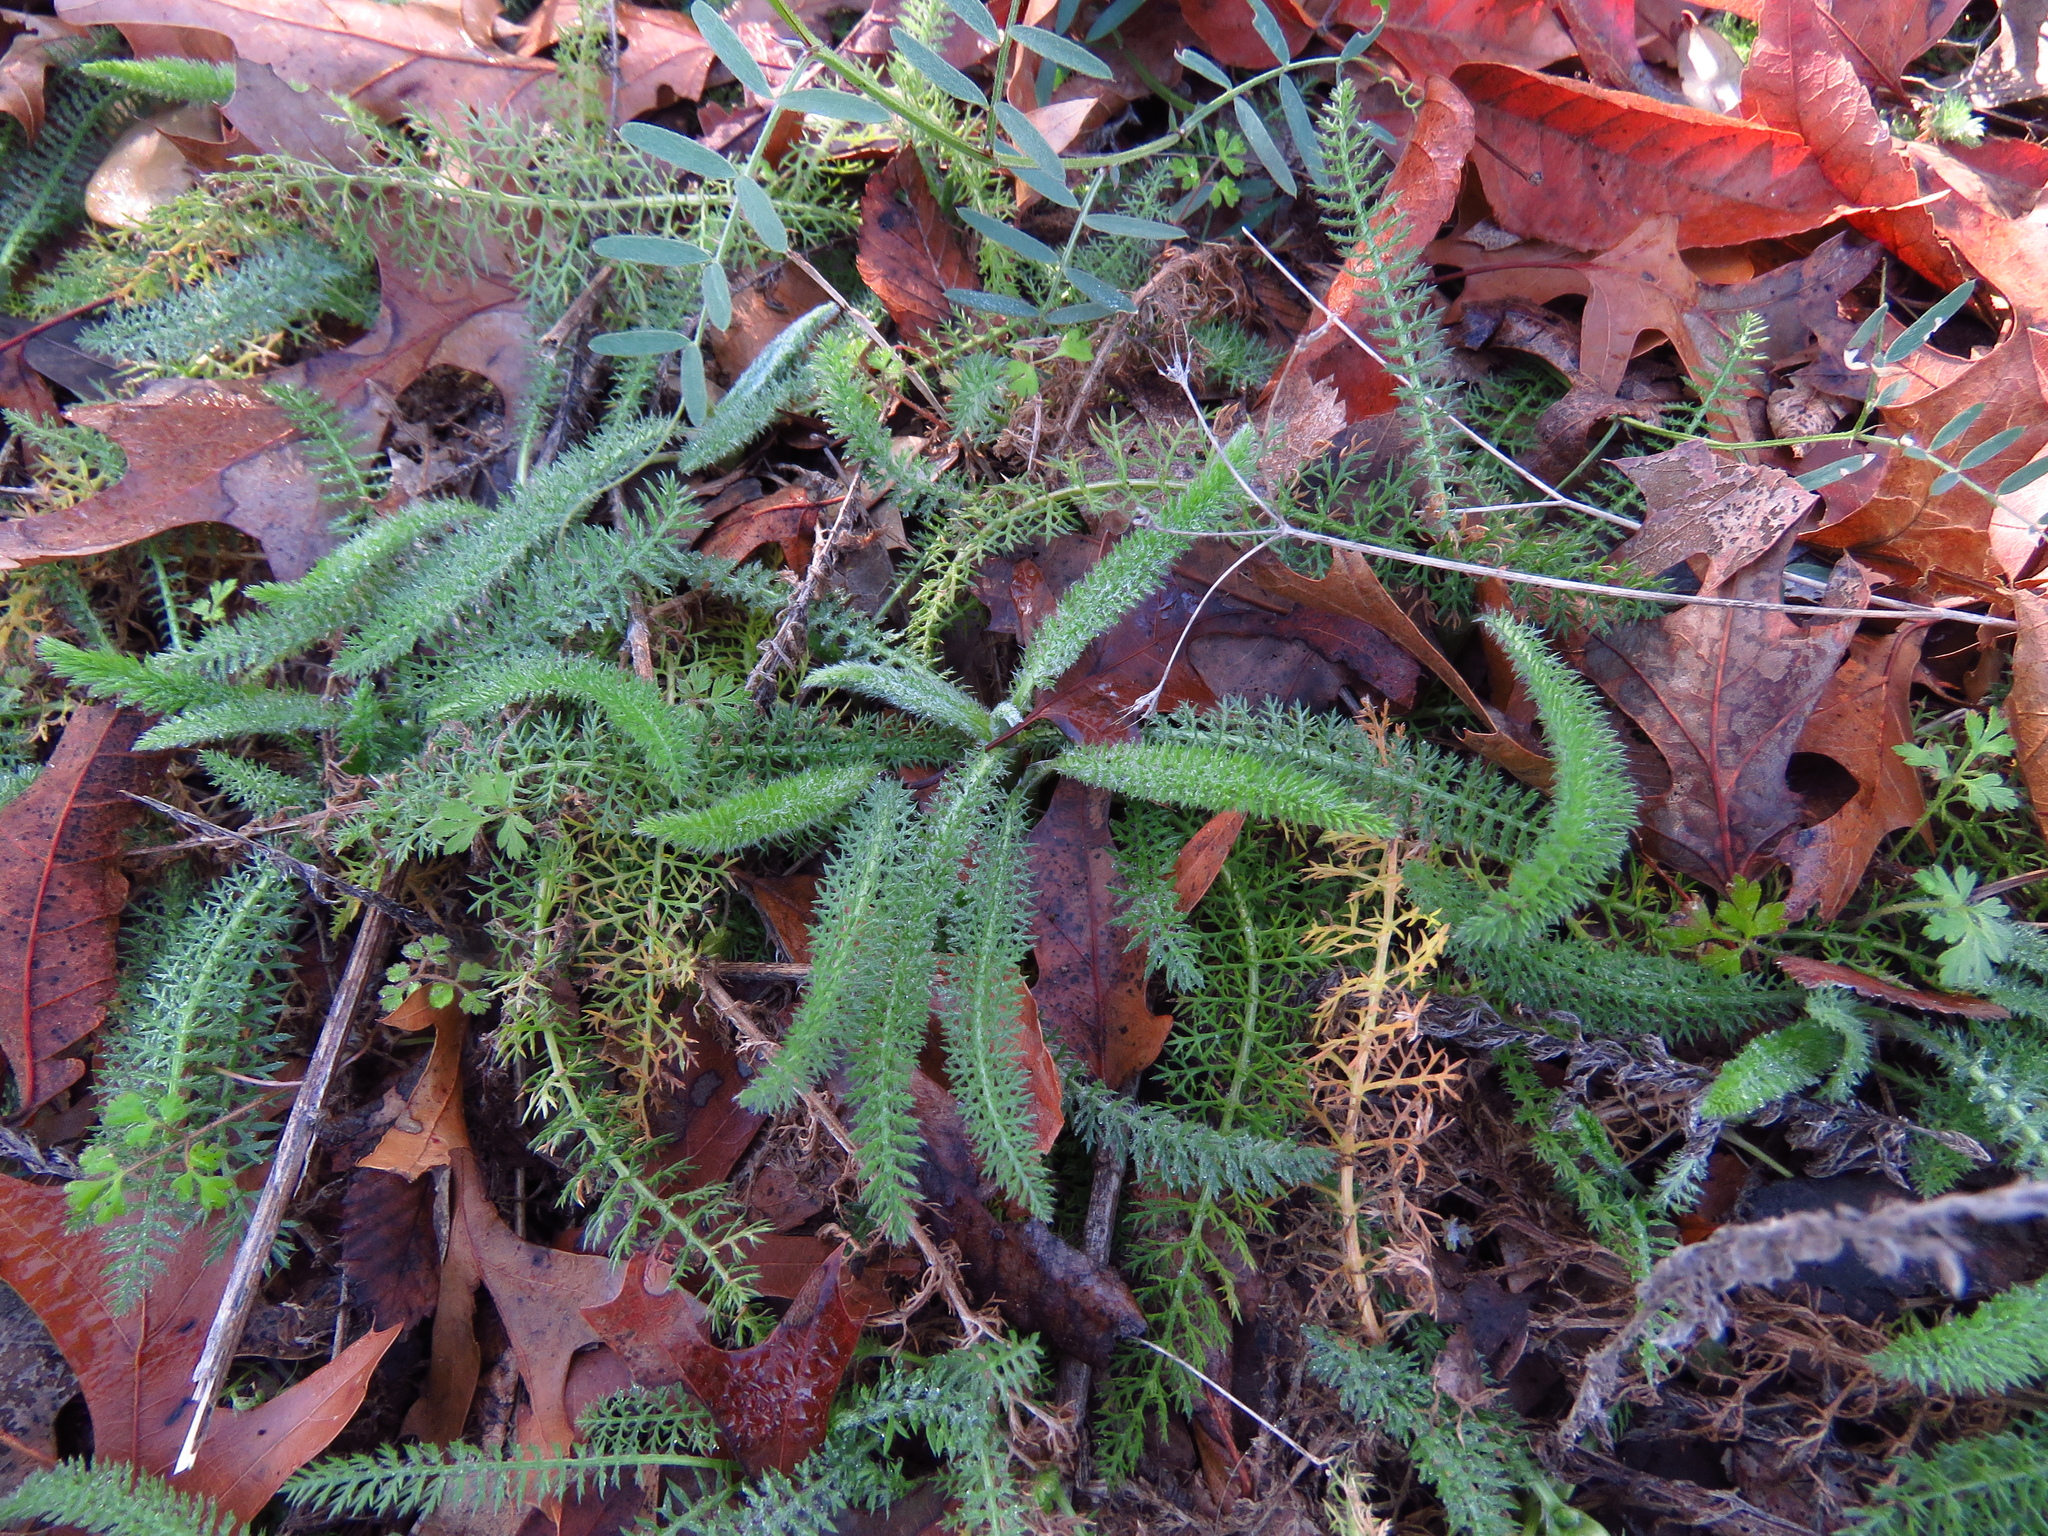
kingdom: Plantae
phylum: Tracheophyta
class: Magnoliopsida
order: Asterales
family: Asteraceae
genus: Achillea
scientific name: Achillea millefolium
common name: Yarrow
